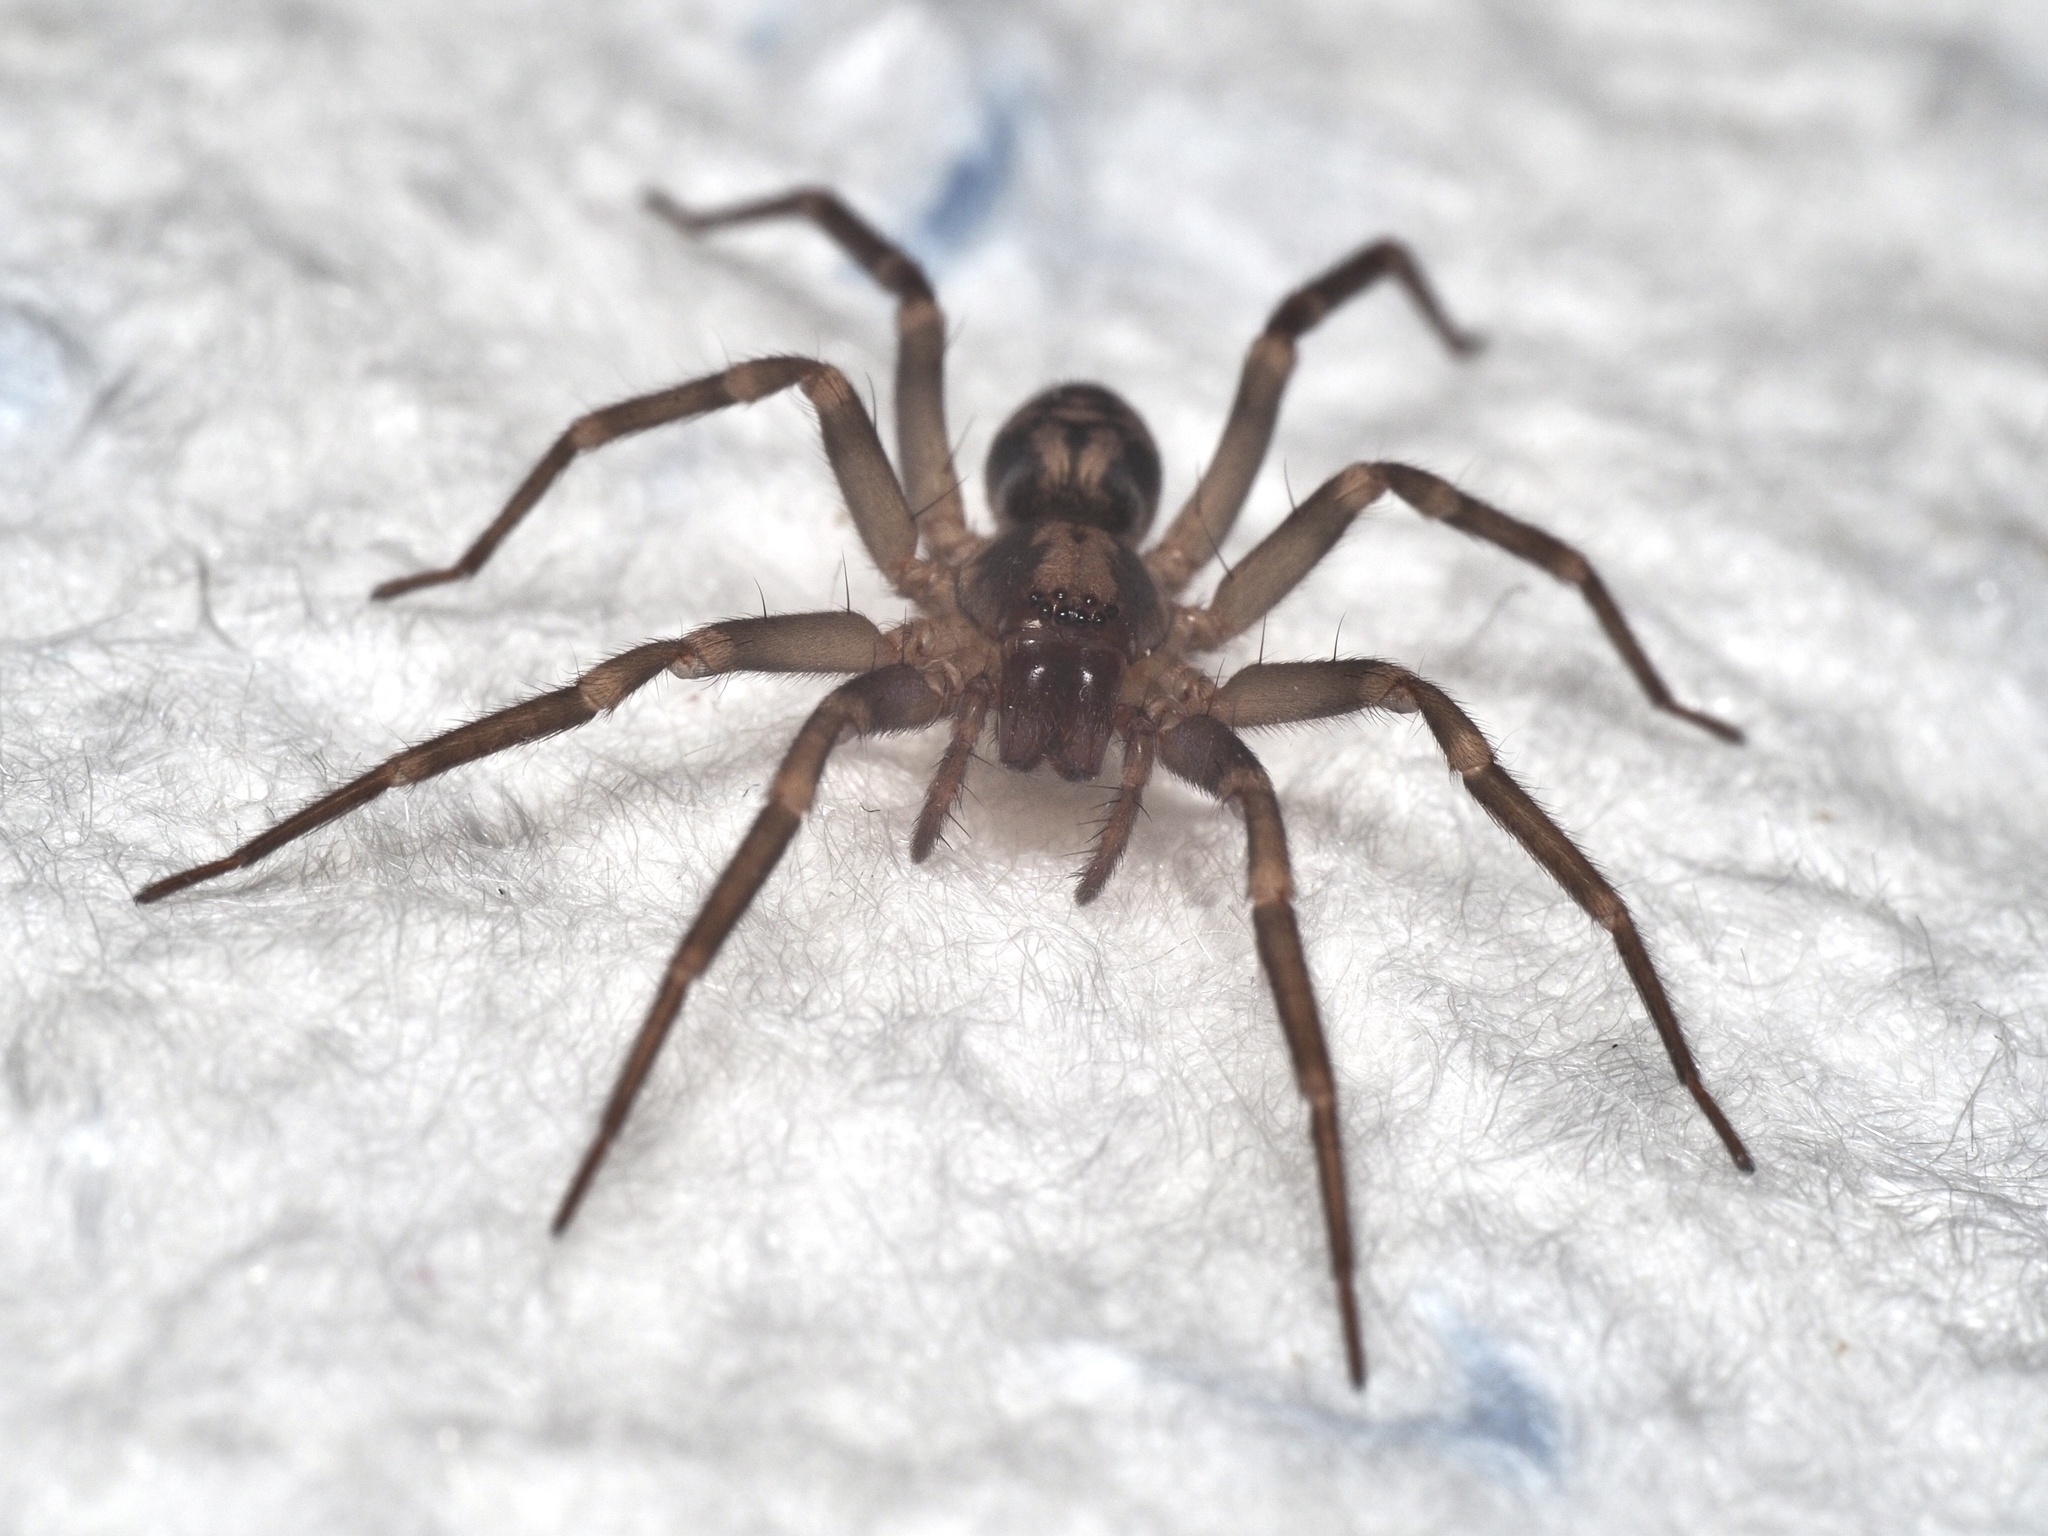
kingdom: Animalia
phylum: Arthropoda
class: Arachnida
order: Araneae
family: Liocranidae
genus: Liocranum
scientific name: Liocranum rupicola
